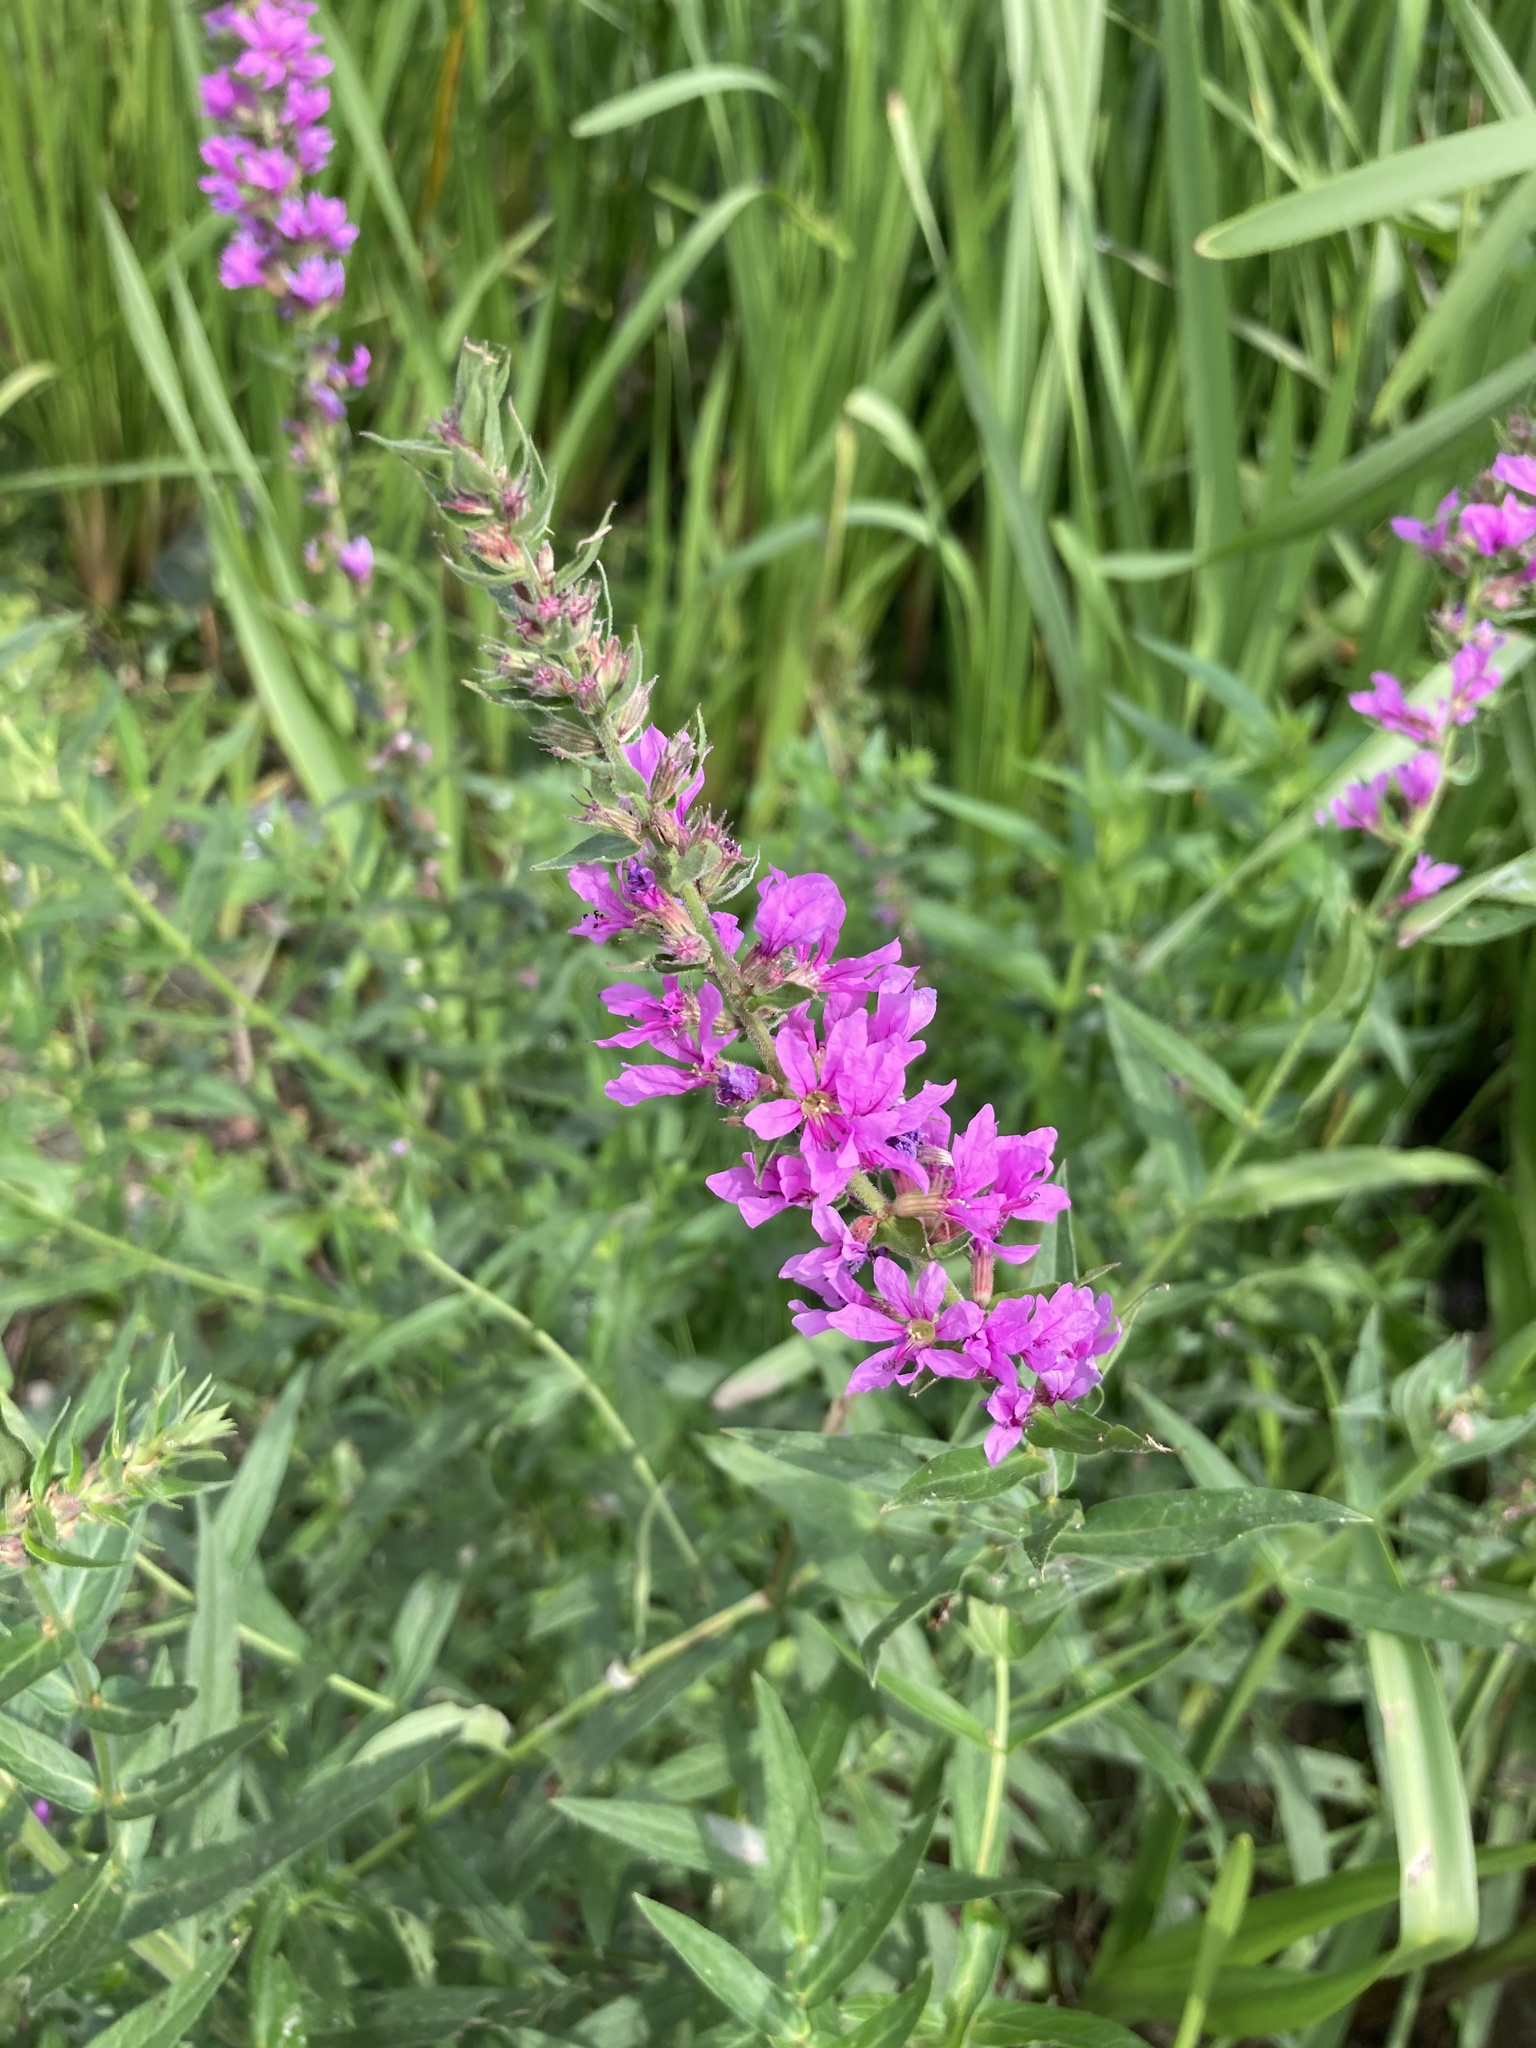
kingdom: Plantae
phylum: Tracheophyta
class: Magnoliopsida
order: Myrtales
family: Lythraceae
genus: Lythrum
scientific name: Lythrum salicaria
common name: Purple loosestrife
